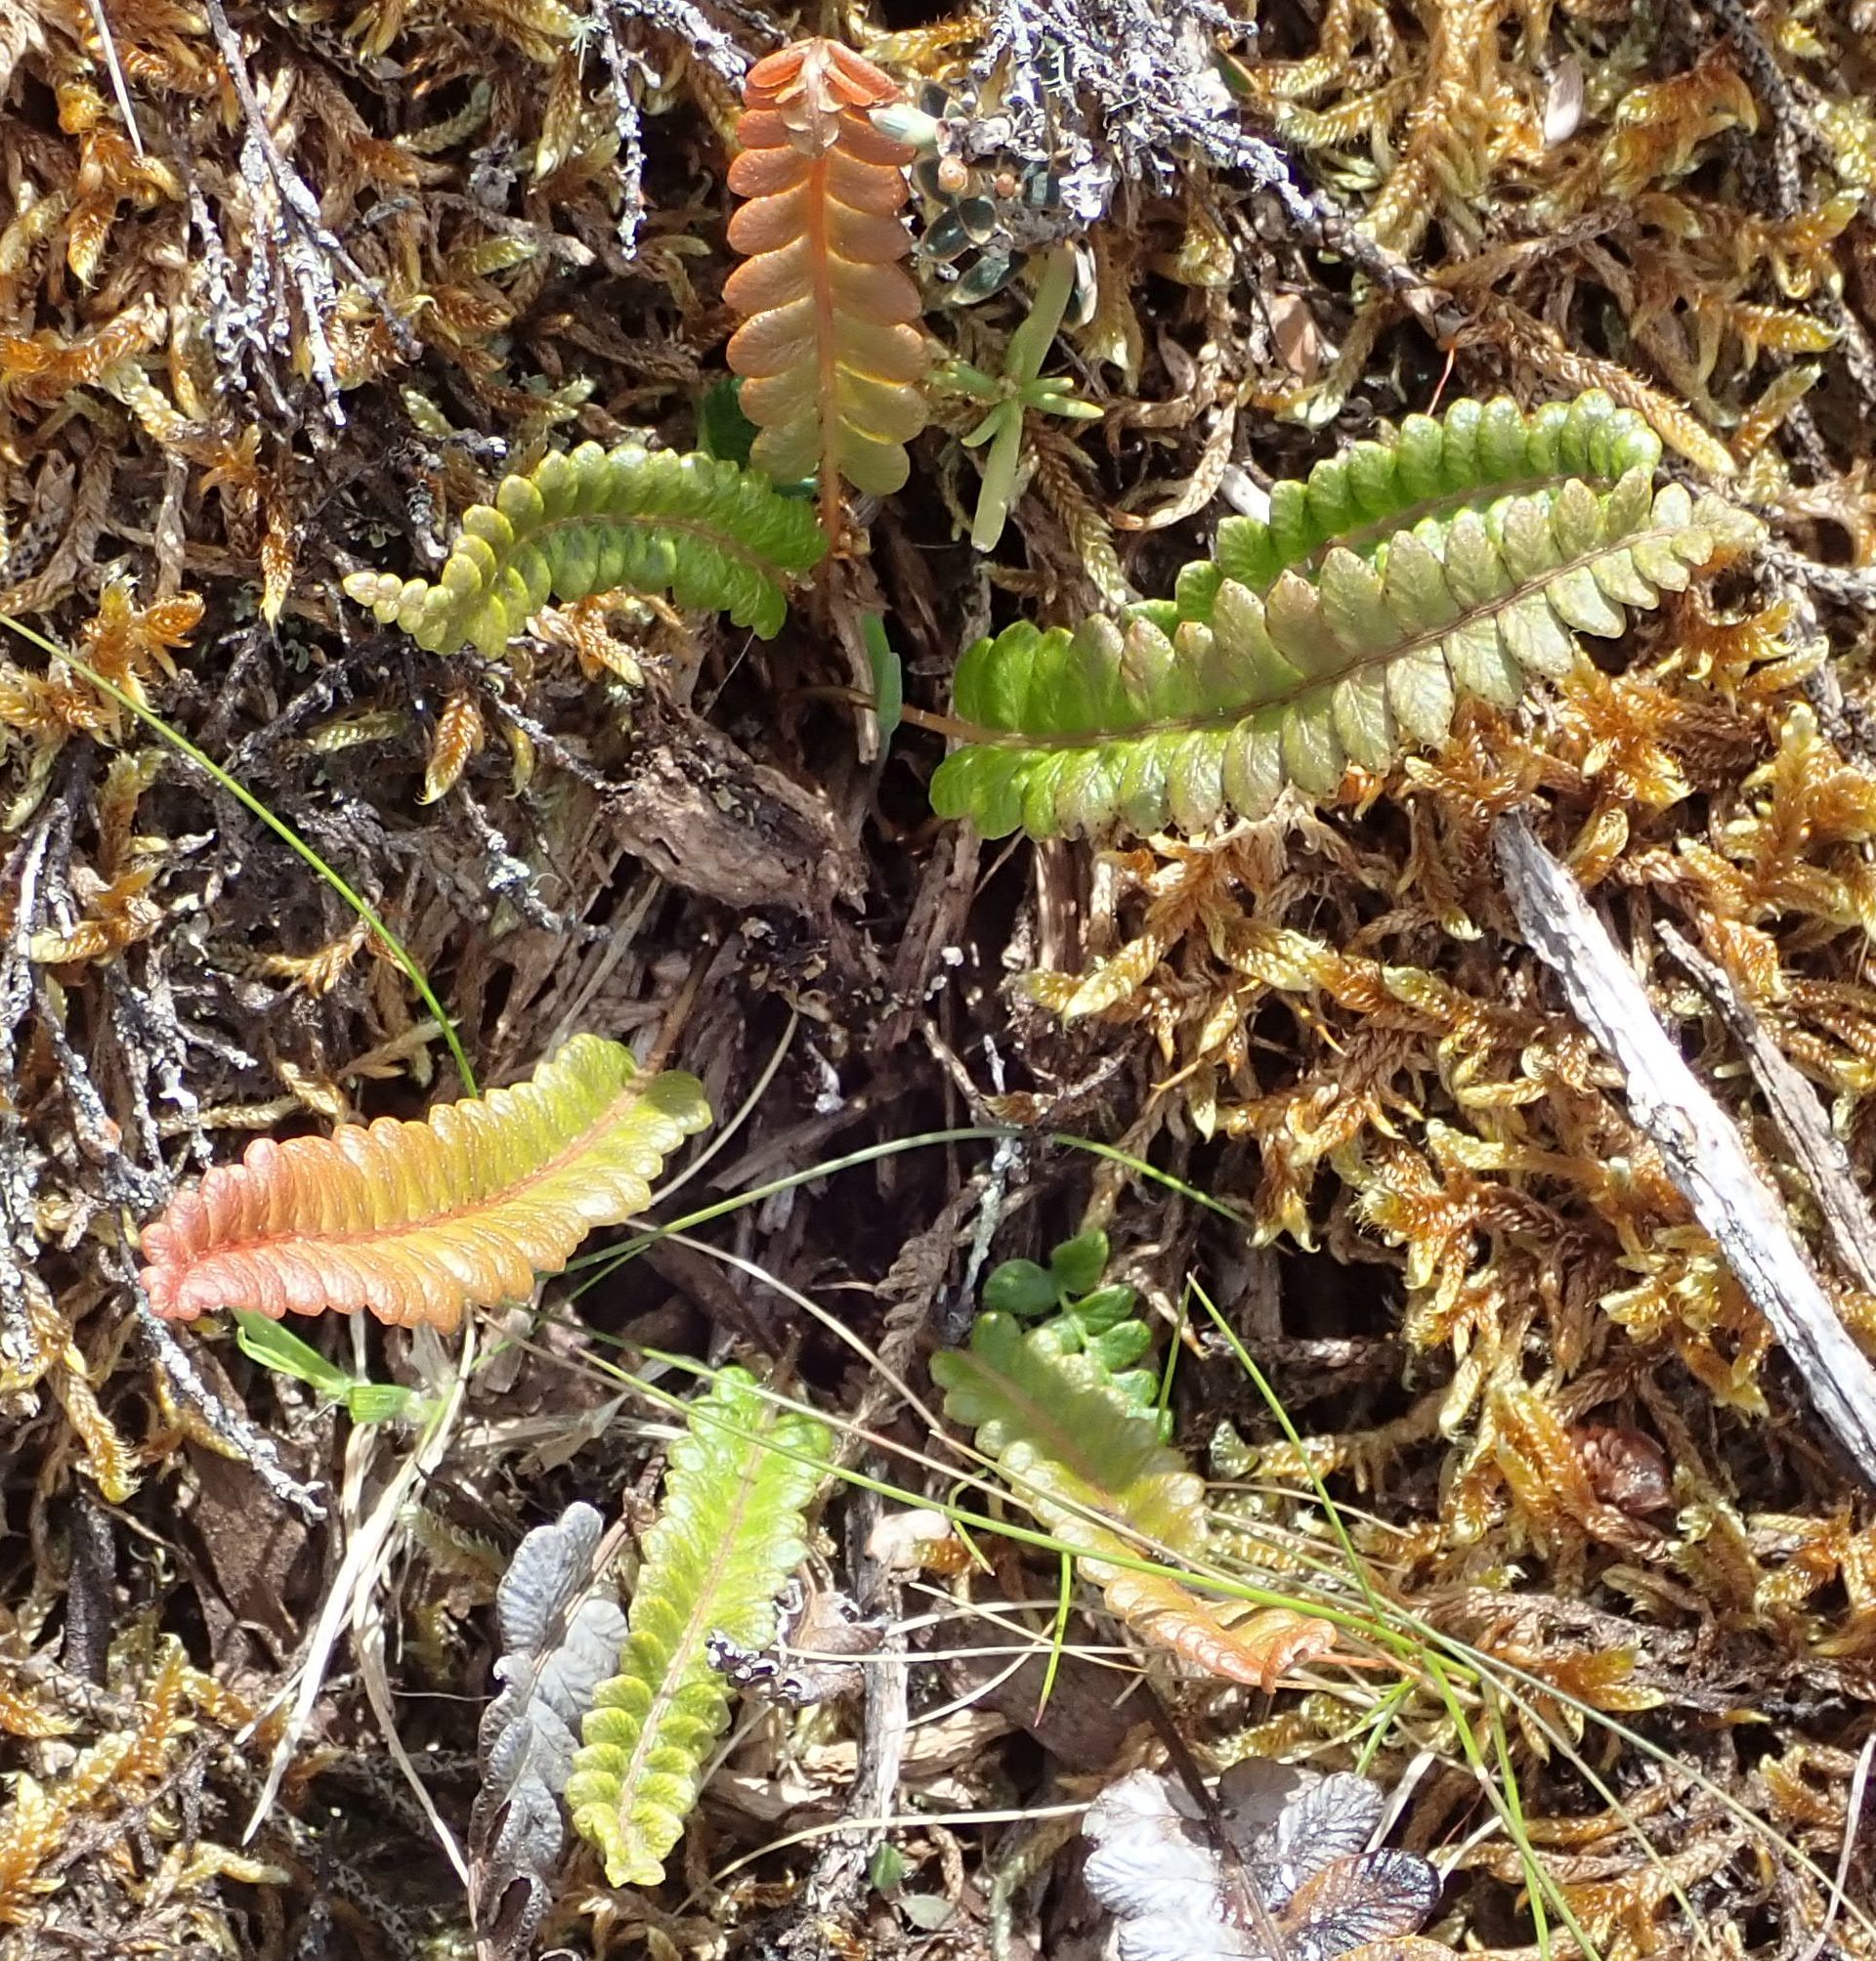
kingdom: Plantae
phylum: Tracheophyta
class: Polypodiopsida
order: Polypodiales
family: Blechnaceae
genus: Austroblechnum
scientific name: Austroblechnum penna-marina
